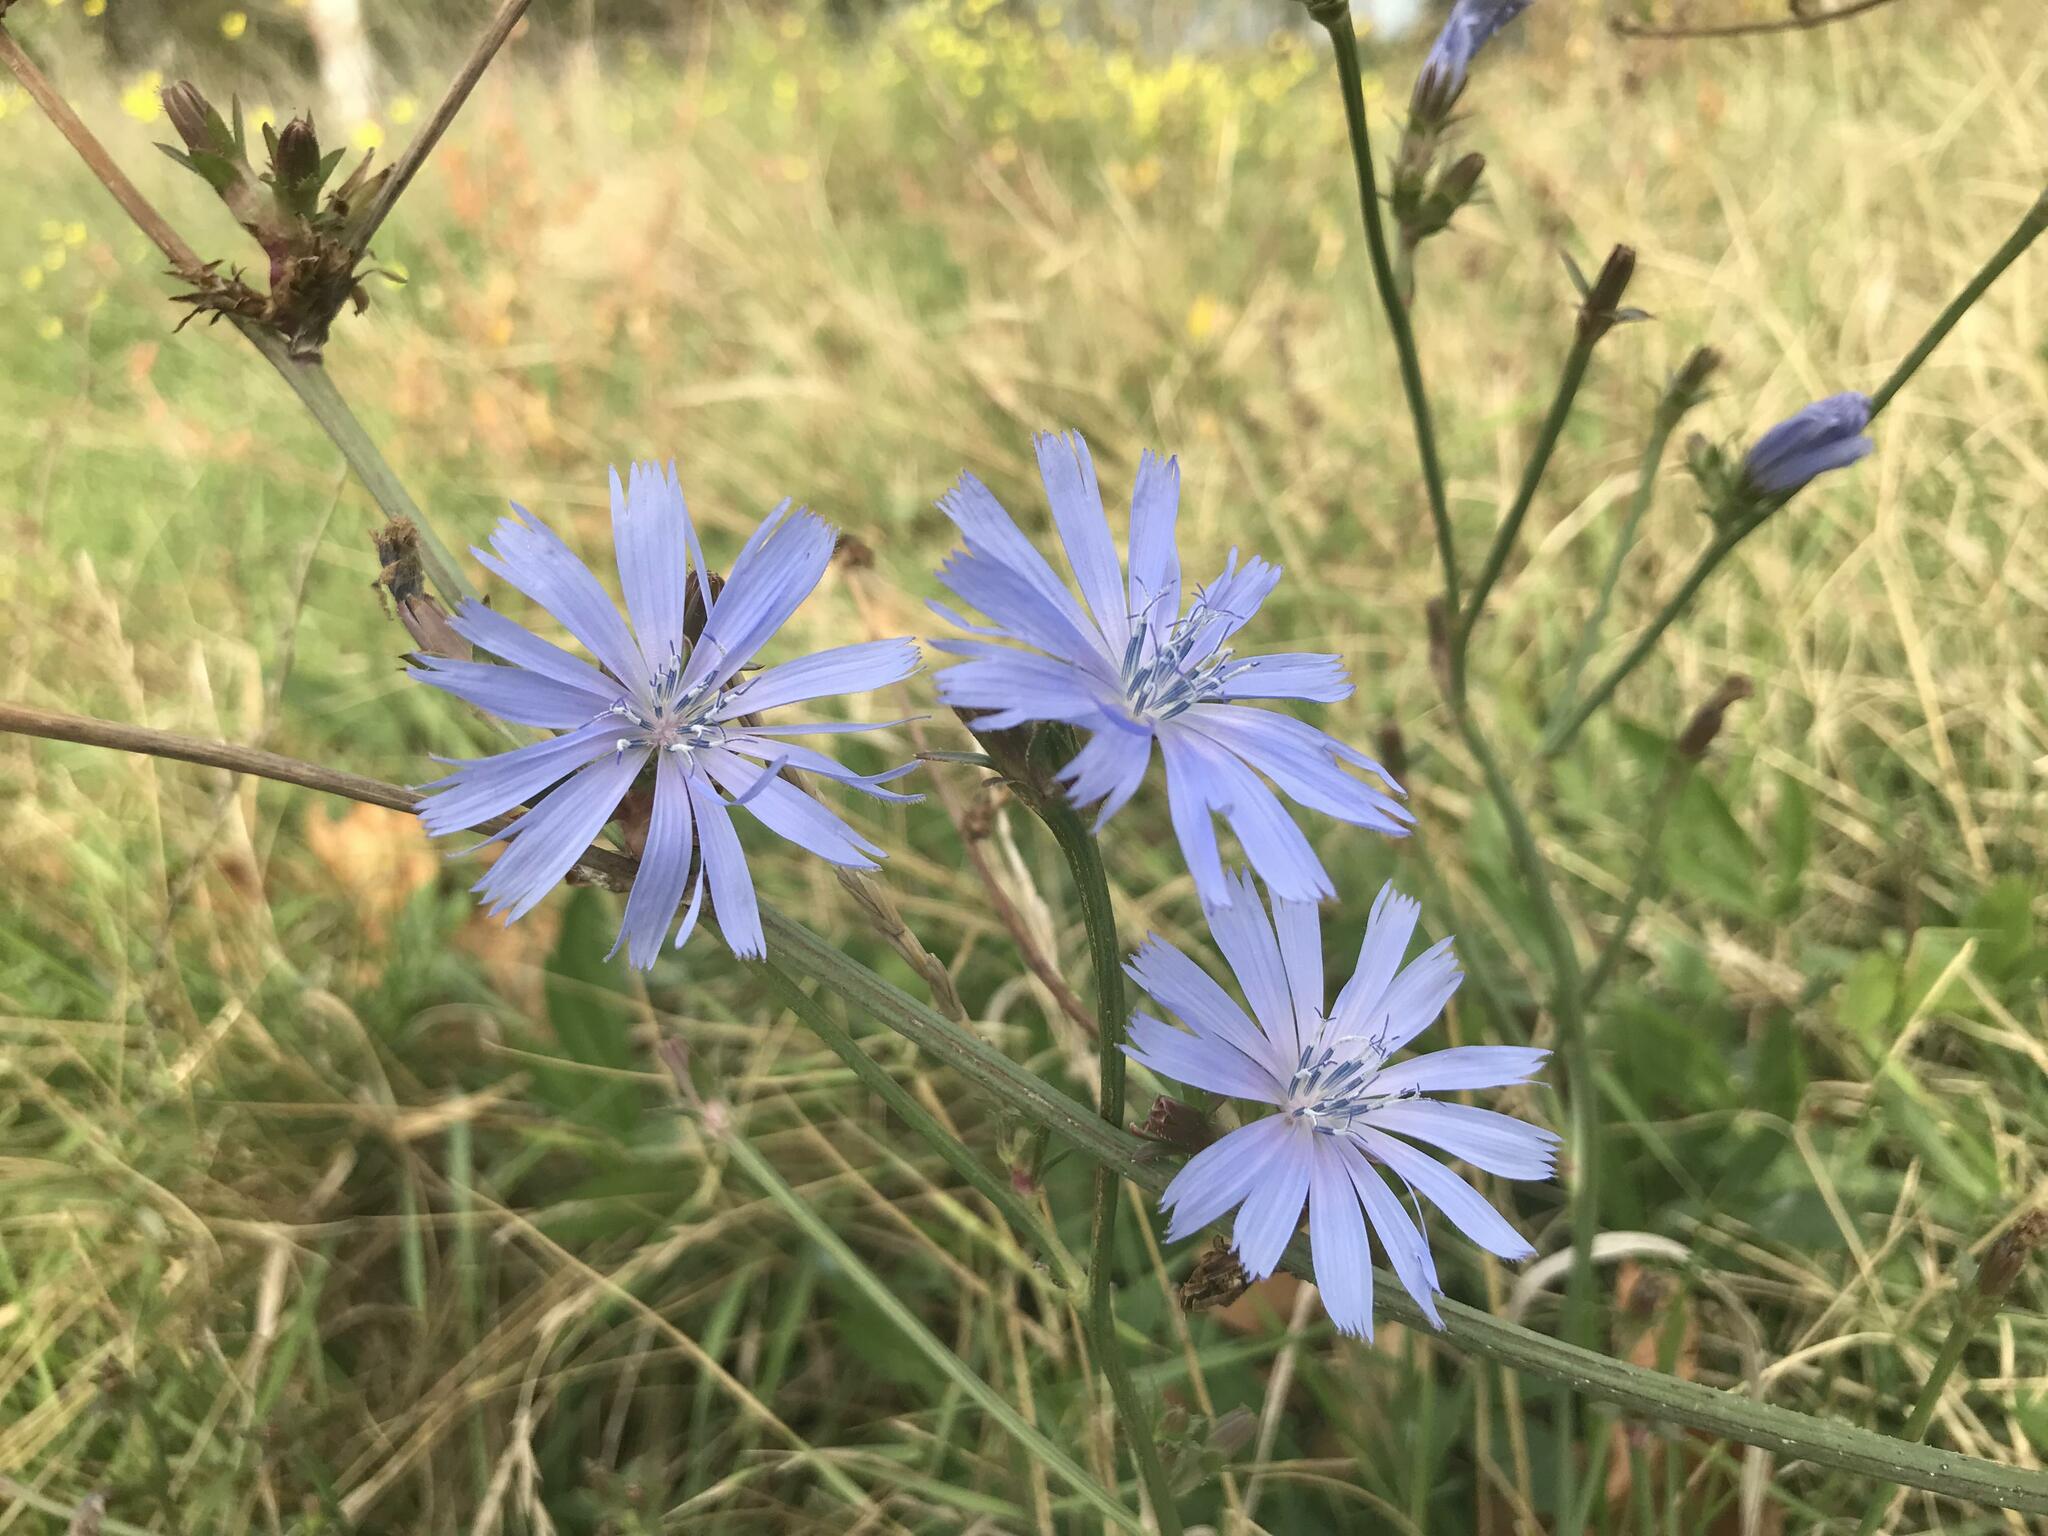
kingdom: Plantae
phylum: Tracheophyta
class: Magnoliopsida
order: Asterales
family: Asteraceae
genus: Cichorium
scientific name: Cichorium intybus
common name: Chicory
